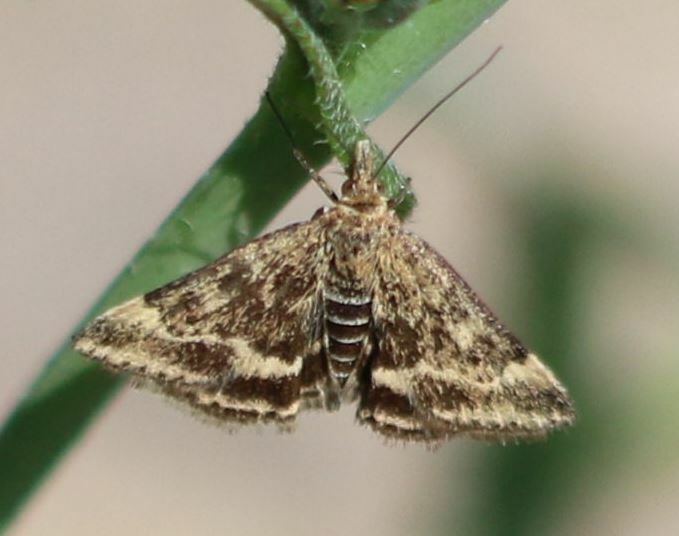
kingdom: Animalia
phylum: Arthropoda
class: Insecta
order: Lepidoptera
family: Crambidae
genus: Pyrausta
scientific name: Pyrausta despicata
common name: Straw-barred pearl
